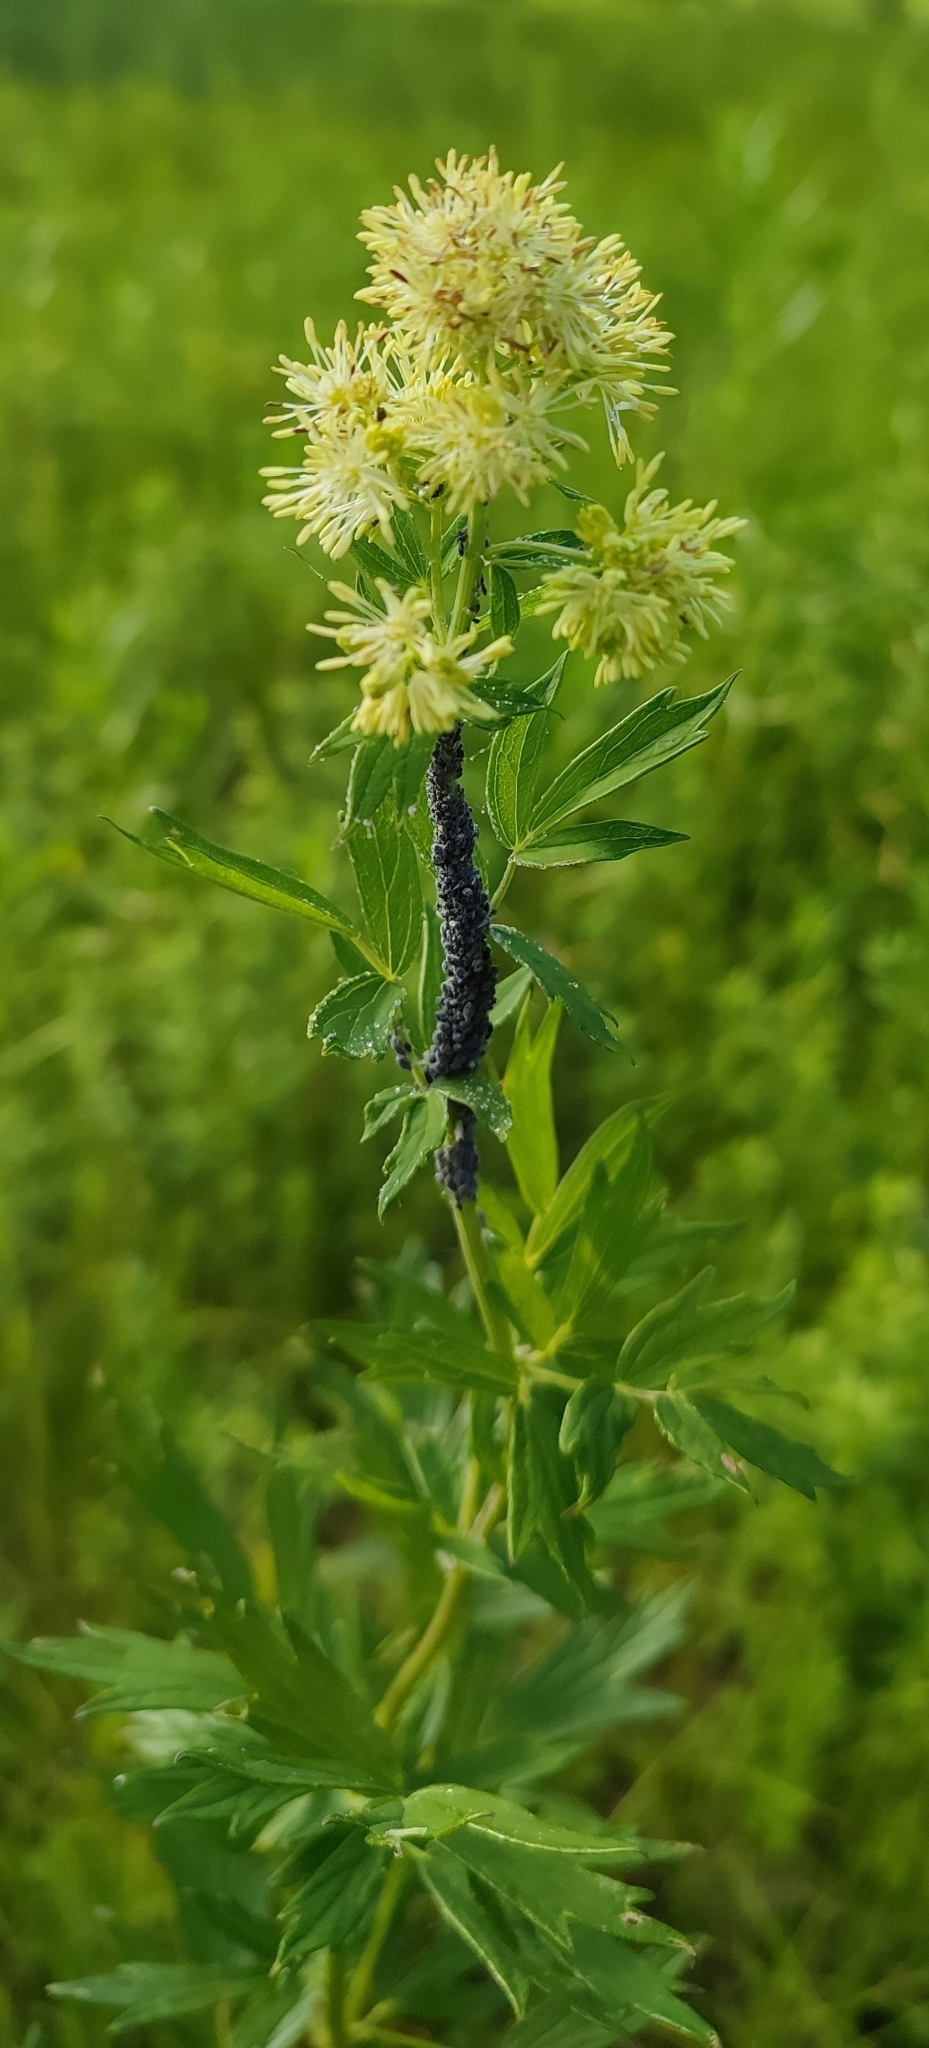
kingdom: Plantae
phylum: Tracheophyta
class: Magnoliopsida
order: Ranunculales
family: Ranunculaceae
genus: Thalictrum
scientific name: Thalictrum flavum
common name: Common meadow-rue
